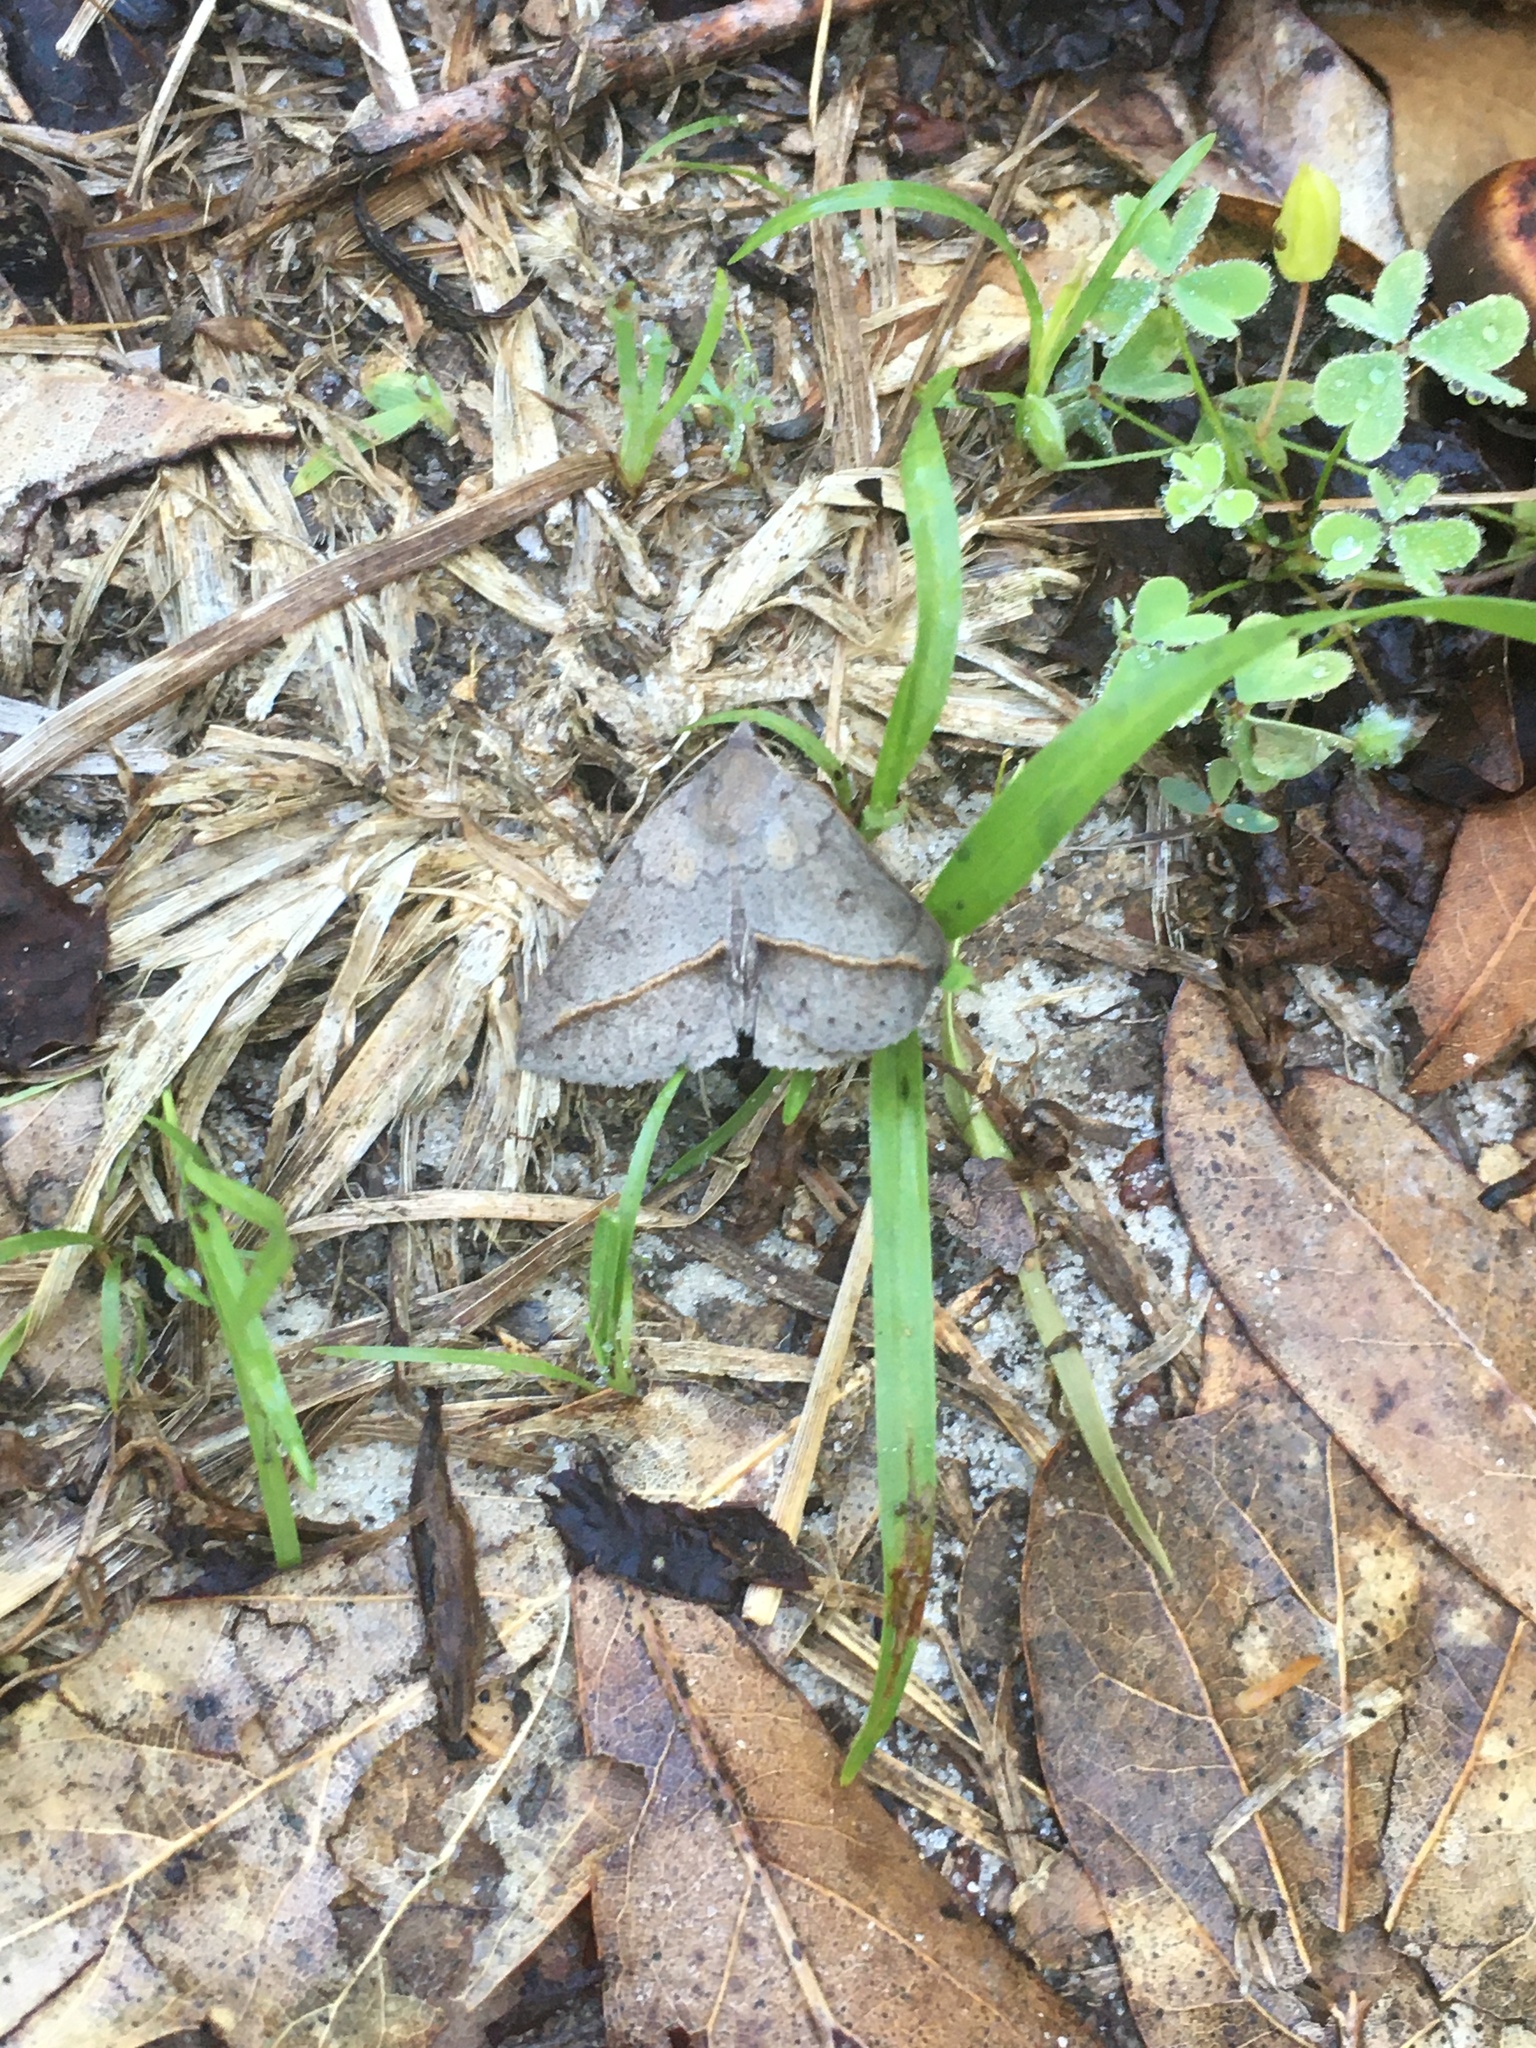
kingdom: Animalia
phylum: Arthropoda
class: Insecta
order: Lepidoptera
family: Erebidae
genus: Argyrostrotis
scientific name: Argyrostrotis flavistriaria
